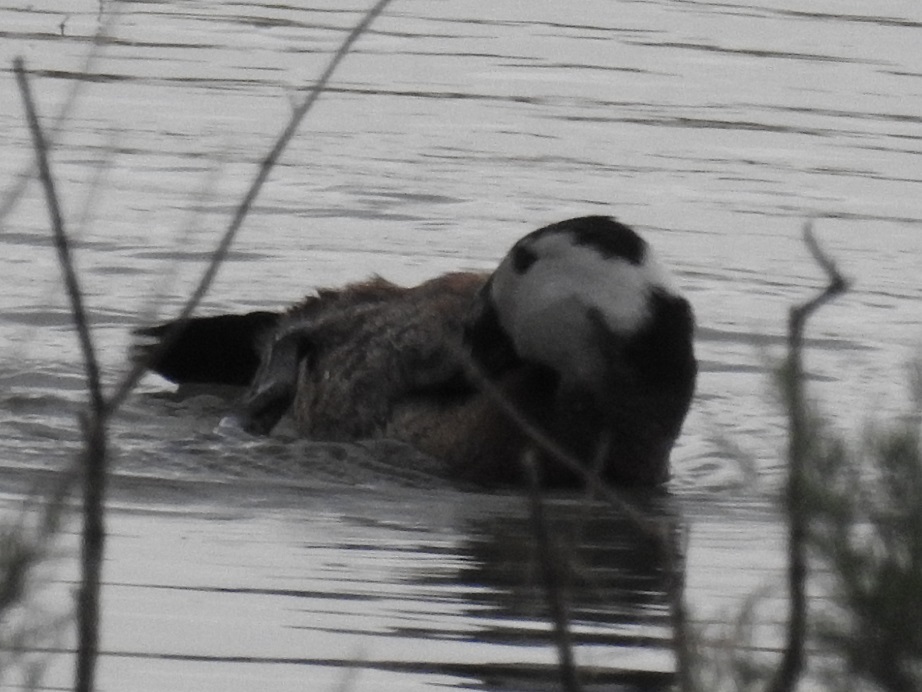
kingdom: Animalia
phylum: Chordata
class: Aves
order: Anseriformes
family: Anatidae
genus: Oxyura
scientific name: Oxyura leucocephala
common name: White-headed duck
